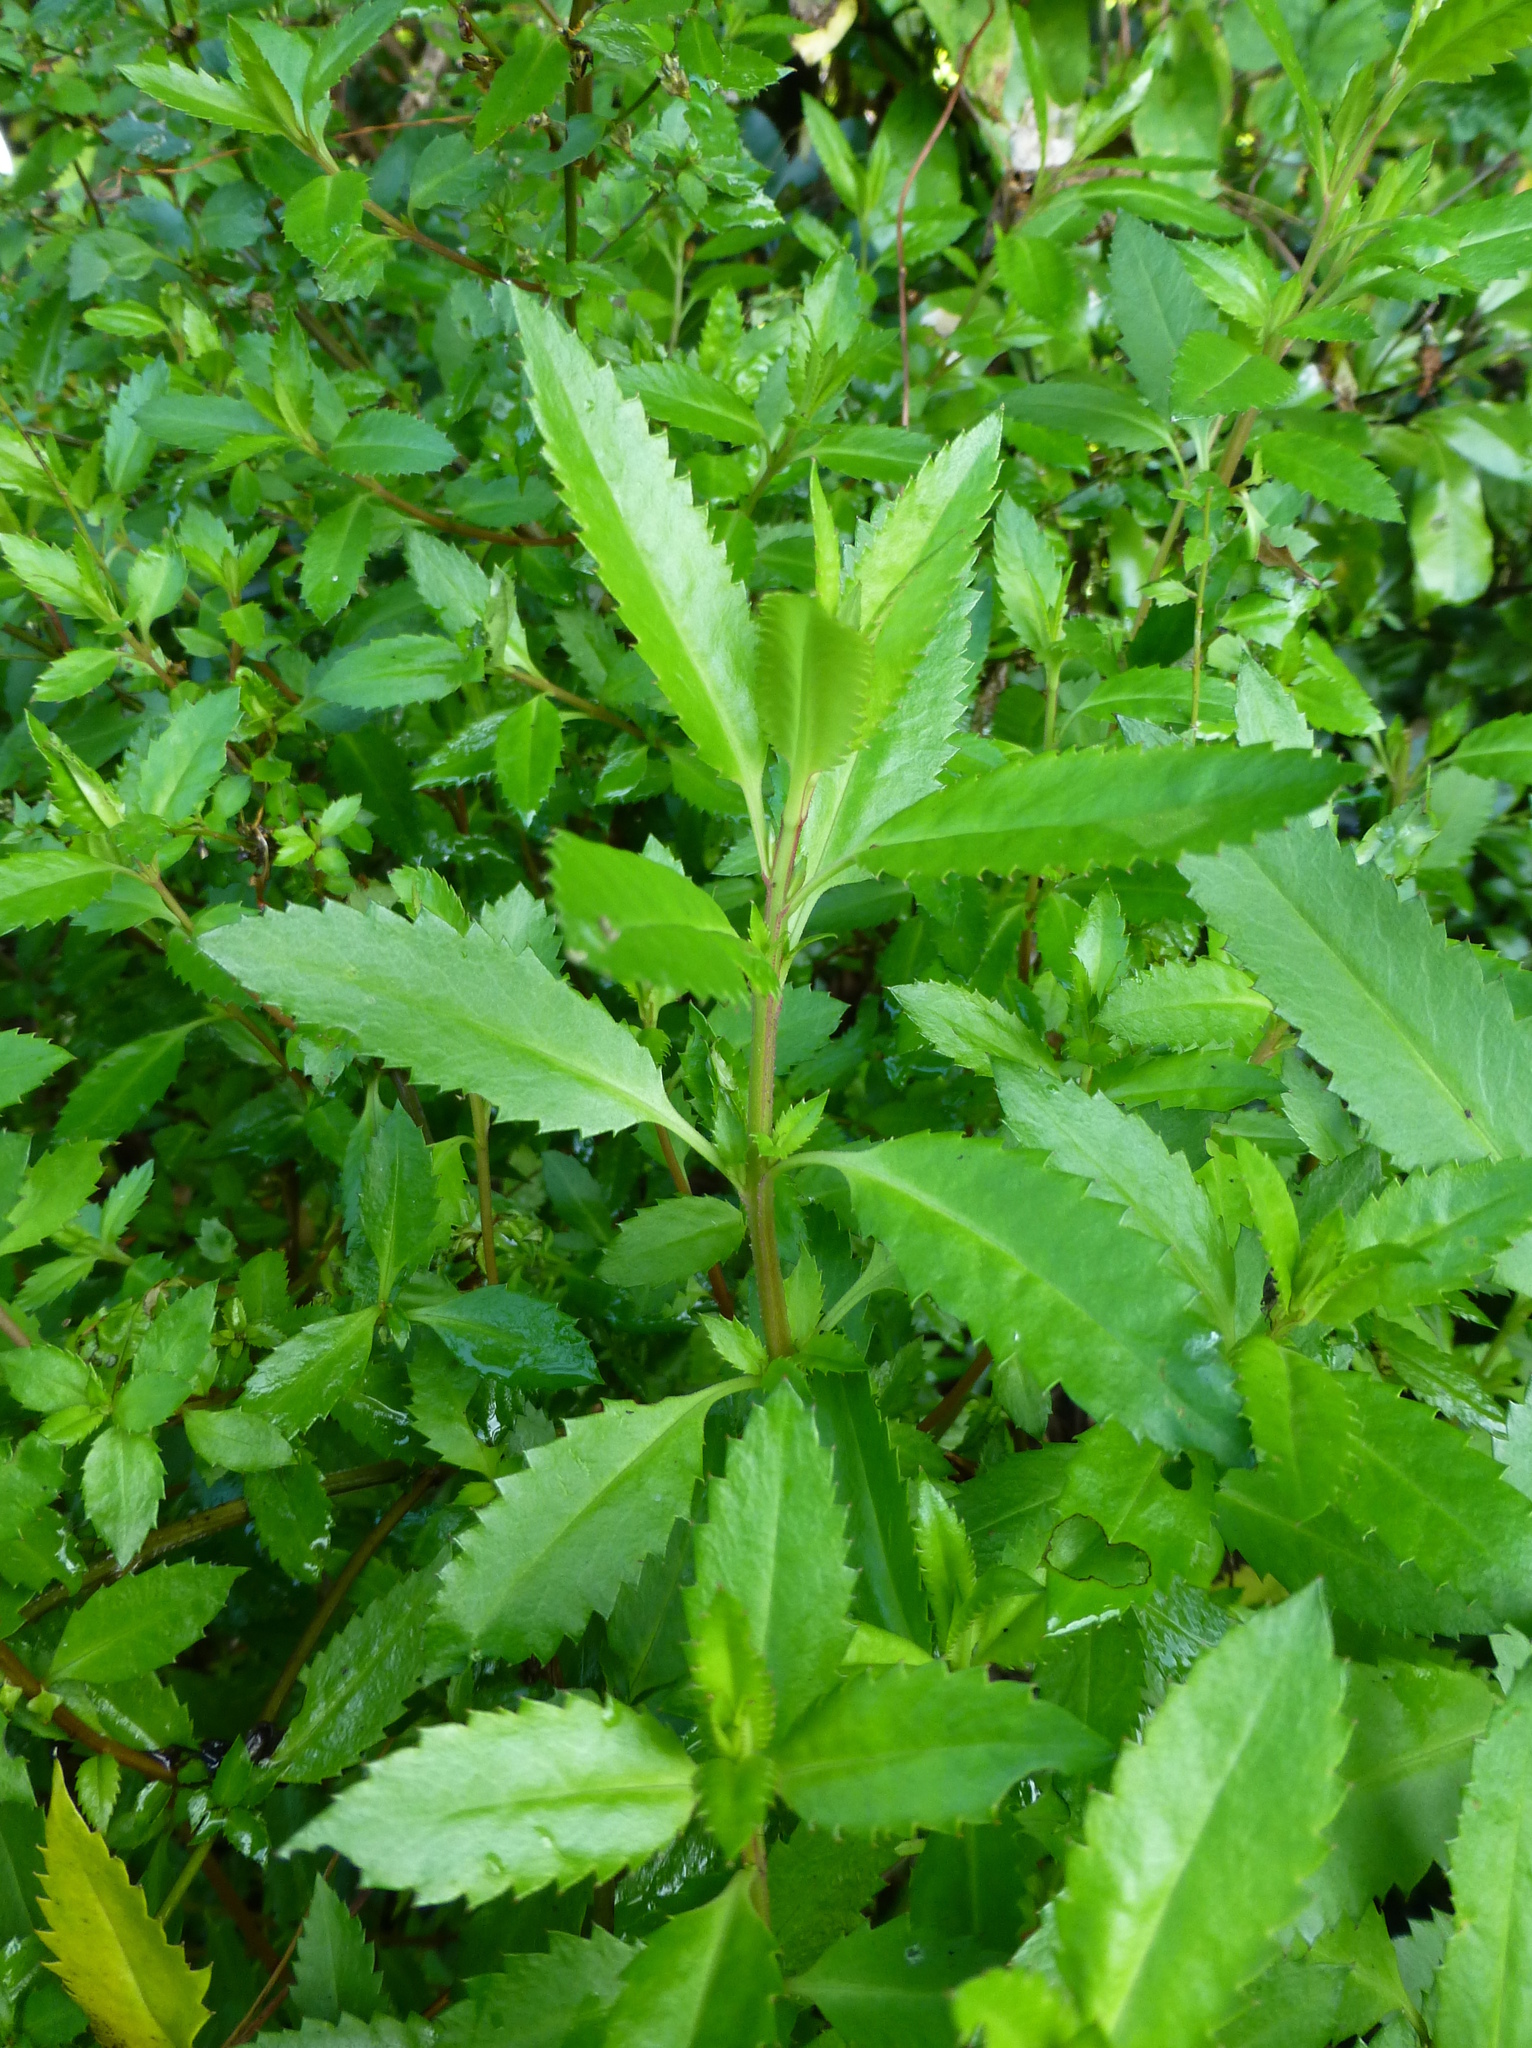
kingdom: Plantae
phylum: Tracheophyta
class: Magnoliopsida
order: Saxifragales
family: Haloragaceae
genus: Haloragis
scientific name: Haloragis erecta
